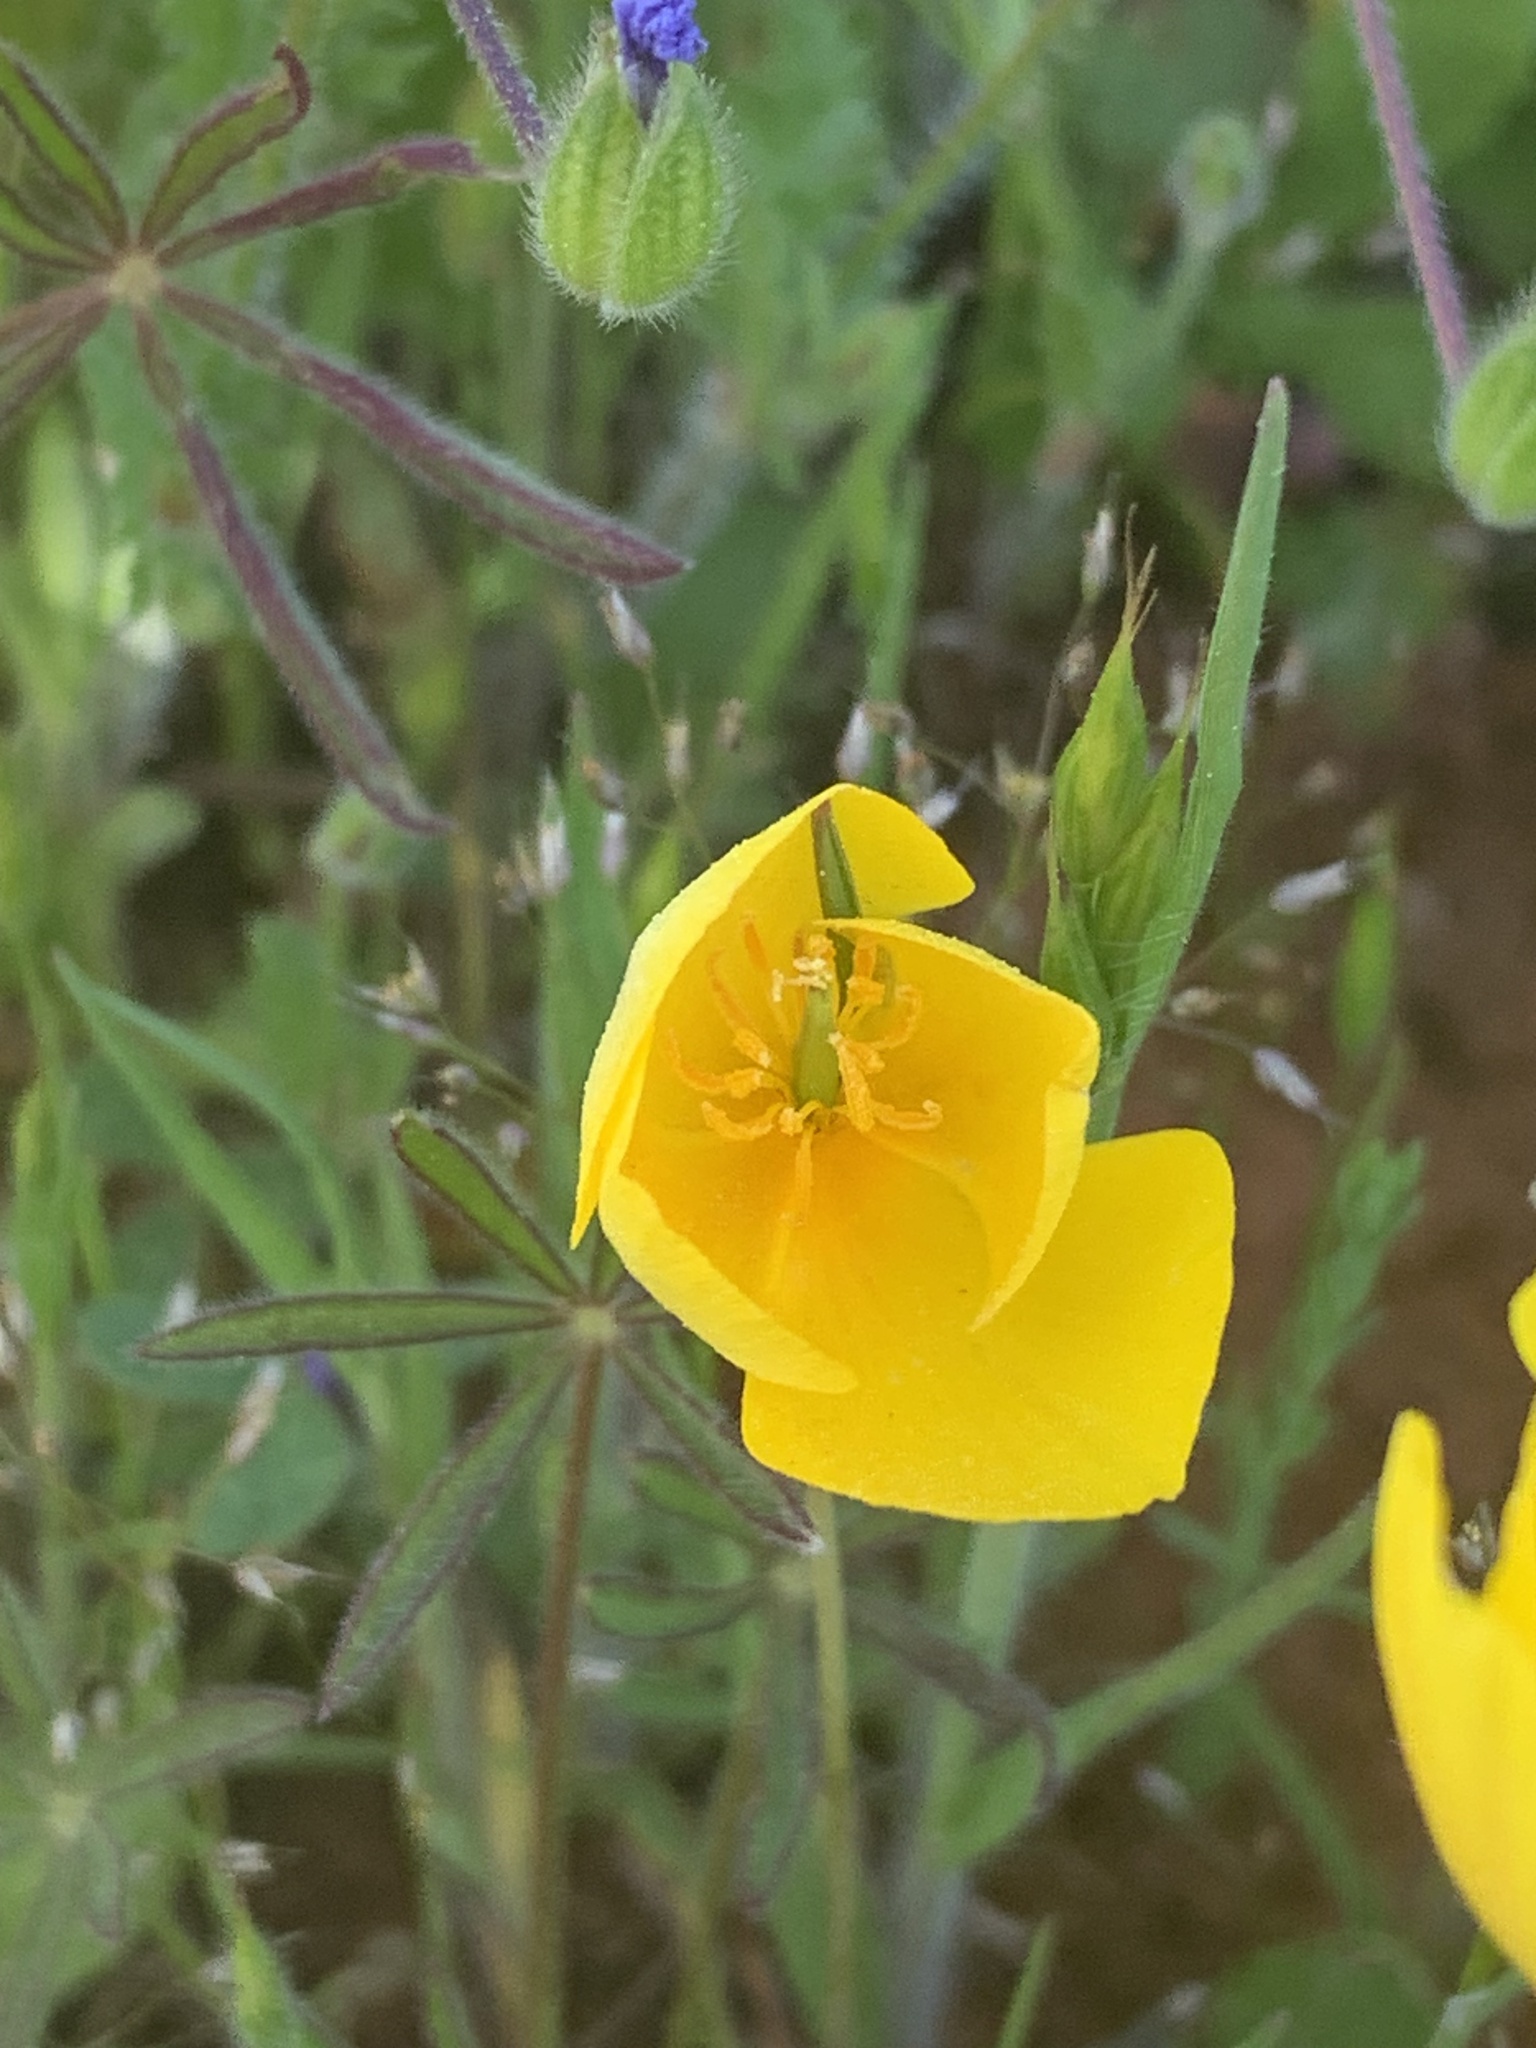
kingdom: Plantae
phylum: Tracheophyta
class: Magnoliopsida
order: Ranunculales
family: Papaveraceae
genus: Eschscholzia
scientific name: Eschscholzia lobbii
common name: Frying-pans
